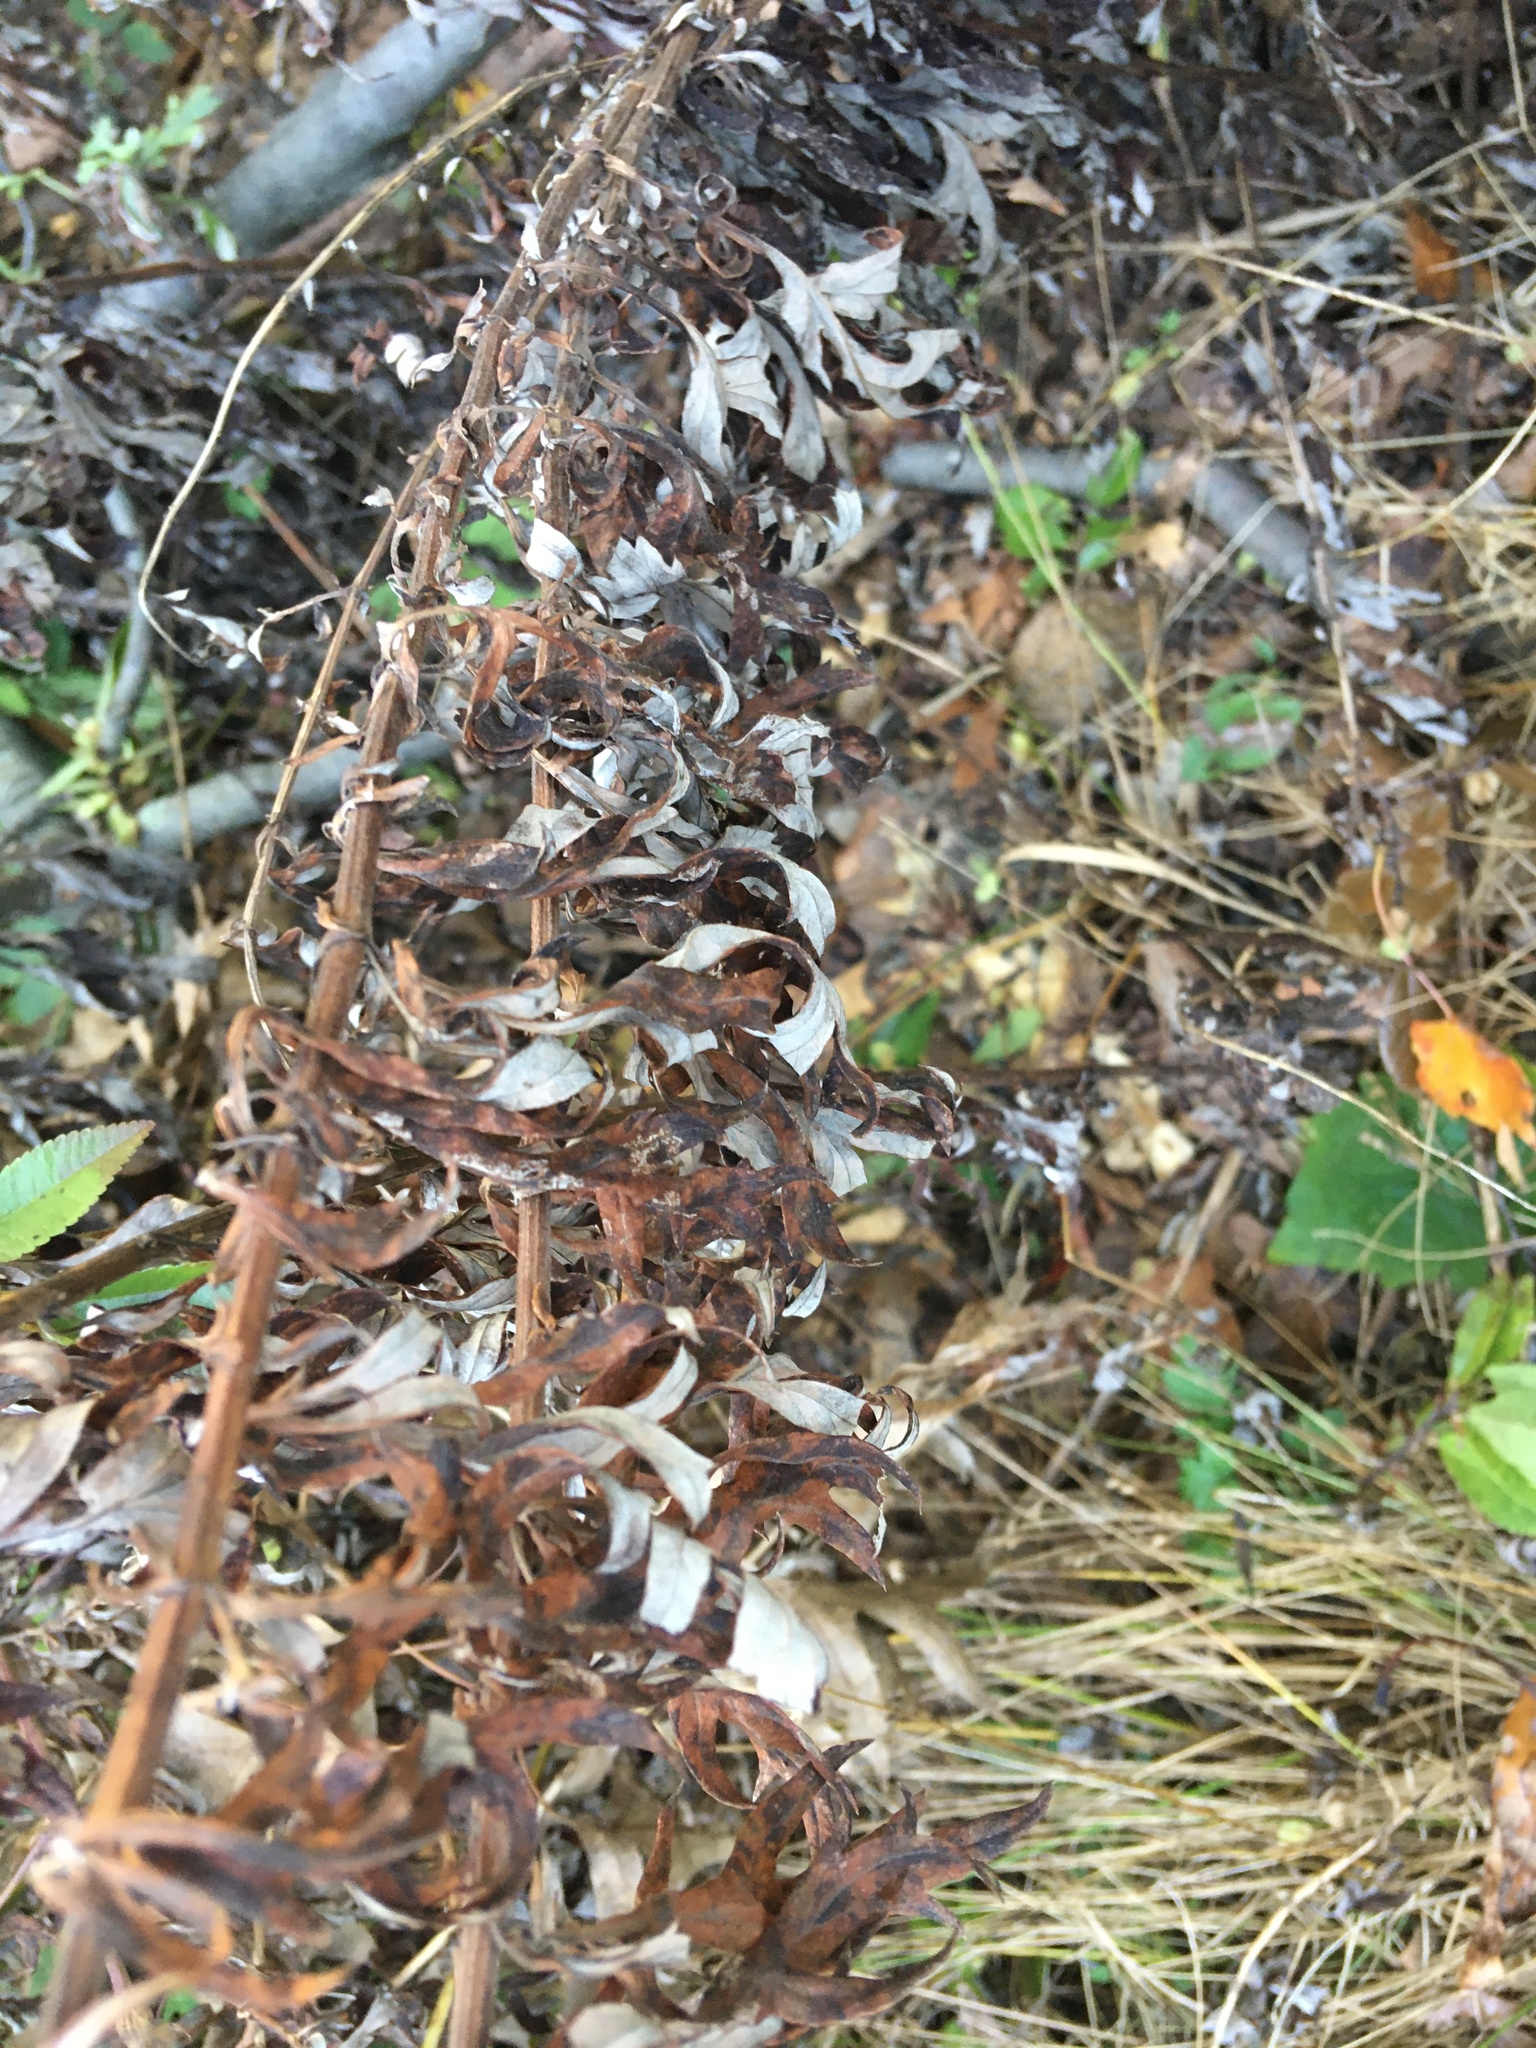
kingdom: Plantae
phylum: Tracheophyta
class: Magnoliopsida
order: Asterales
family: Asteraceae
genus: Artemisia
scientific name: Artemisia vulgaris
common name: Mugwort
